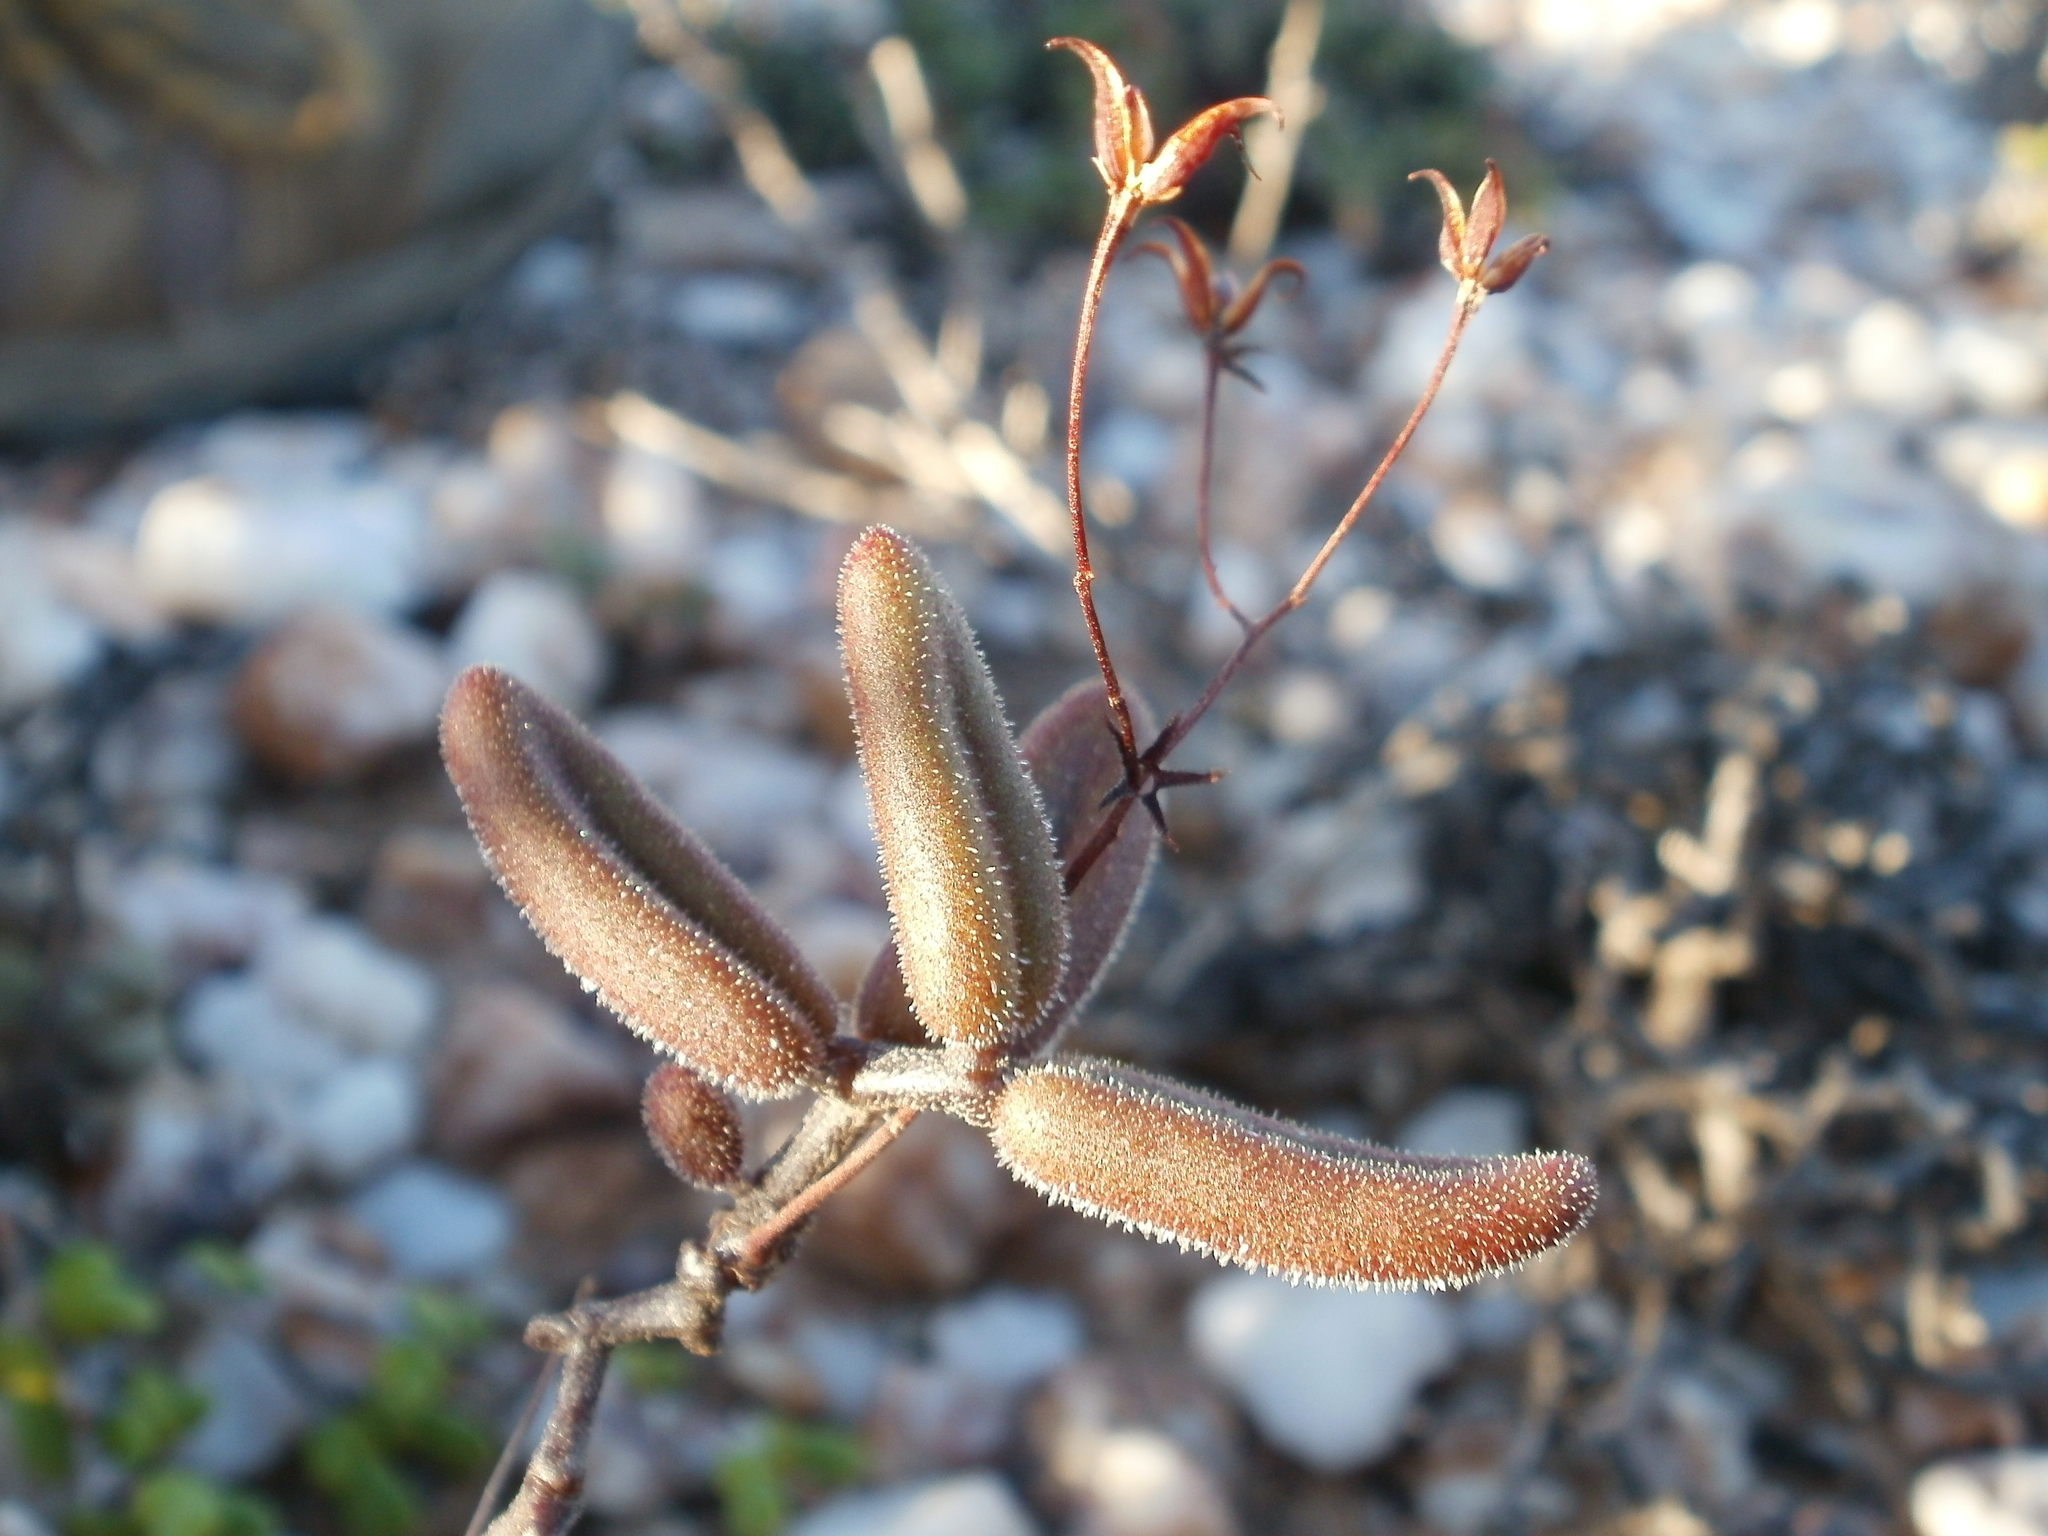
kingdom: Plantae
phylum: Tracheophyta
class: Magnoliopsida
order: Saxifragales
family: Crassulaceae
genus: Tylecodon
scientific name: Tylecodon tenuis
